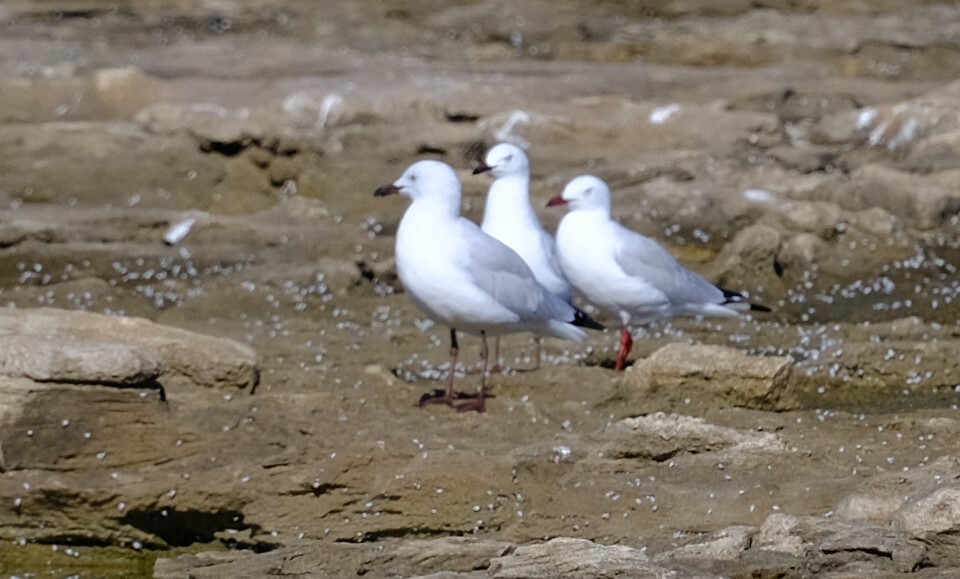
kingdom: Animalia
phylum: Chordata
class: Aves
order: Charadriiformes
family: Laridae
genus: Chroicocephalus
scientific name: Chroicocephalus novaehollandiae
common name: Silver gull
